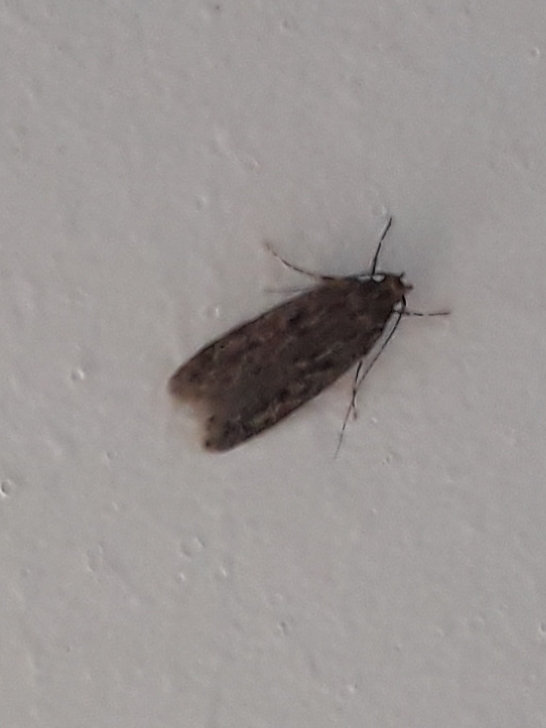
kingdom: Animalia
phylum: Arthropoda
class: Insecta
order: Lepidoptera
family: Oecophoridae
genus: Hofmannophila
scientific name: Hofmannophila pseudospretella
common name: Brown house moth
